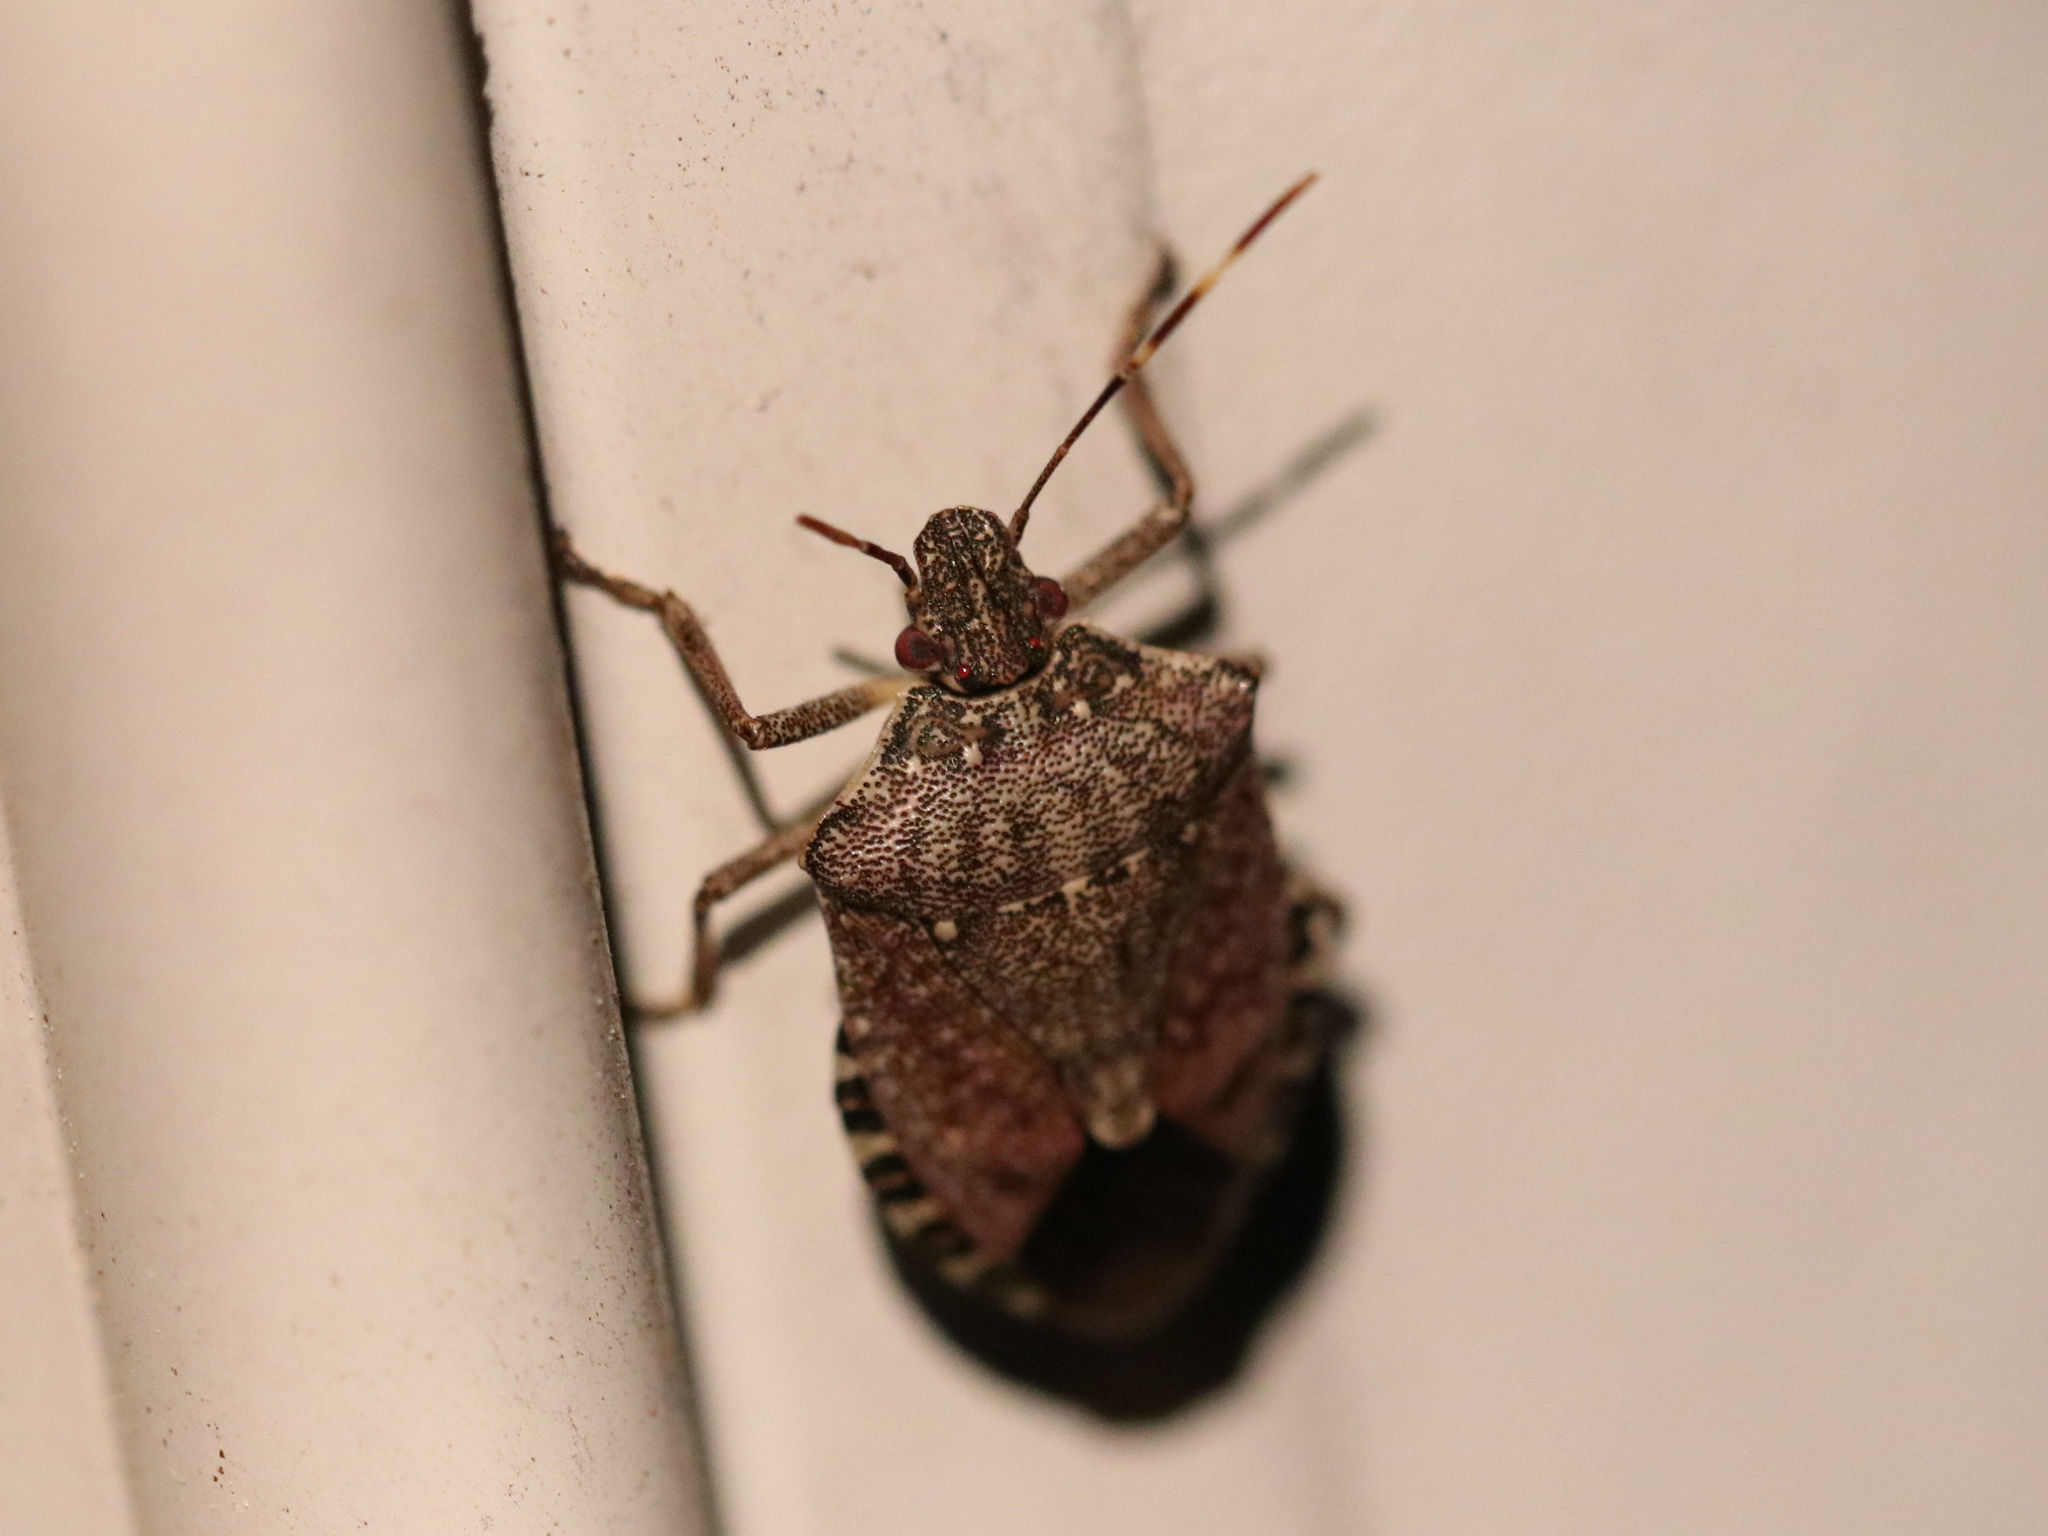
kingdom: Animalia
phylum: Arthropoda
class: Insecta
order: Hemiptera
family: Pentatomidae
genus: Halyomorpha
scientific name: Halyomorpha halys
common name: Brown marmorated stink bug
